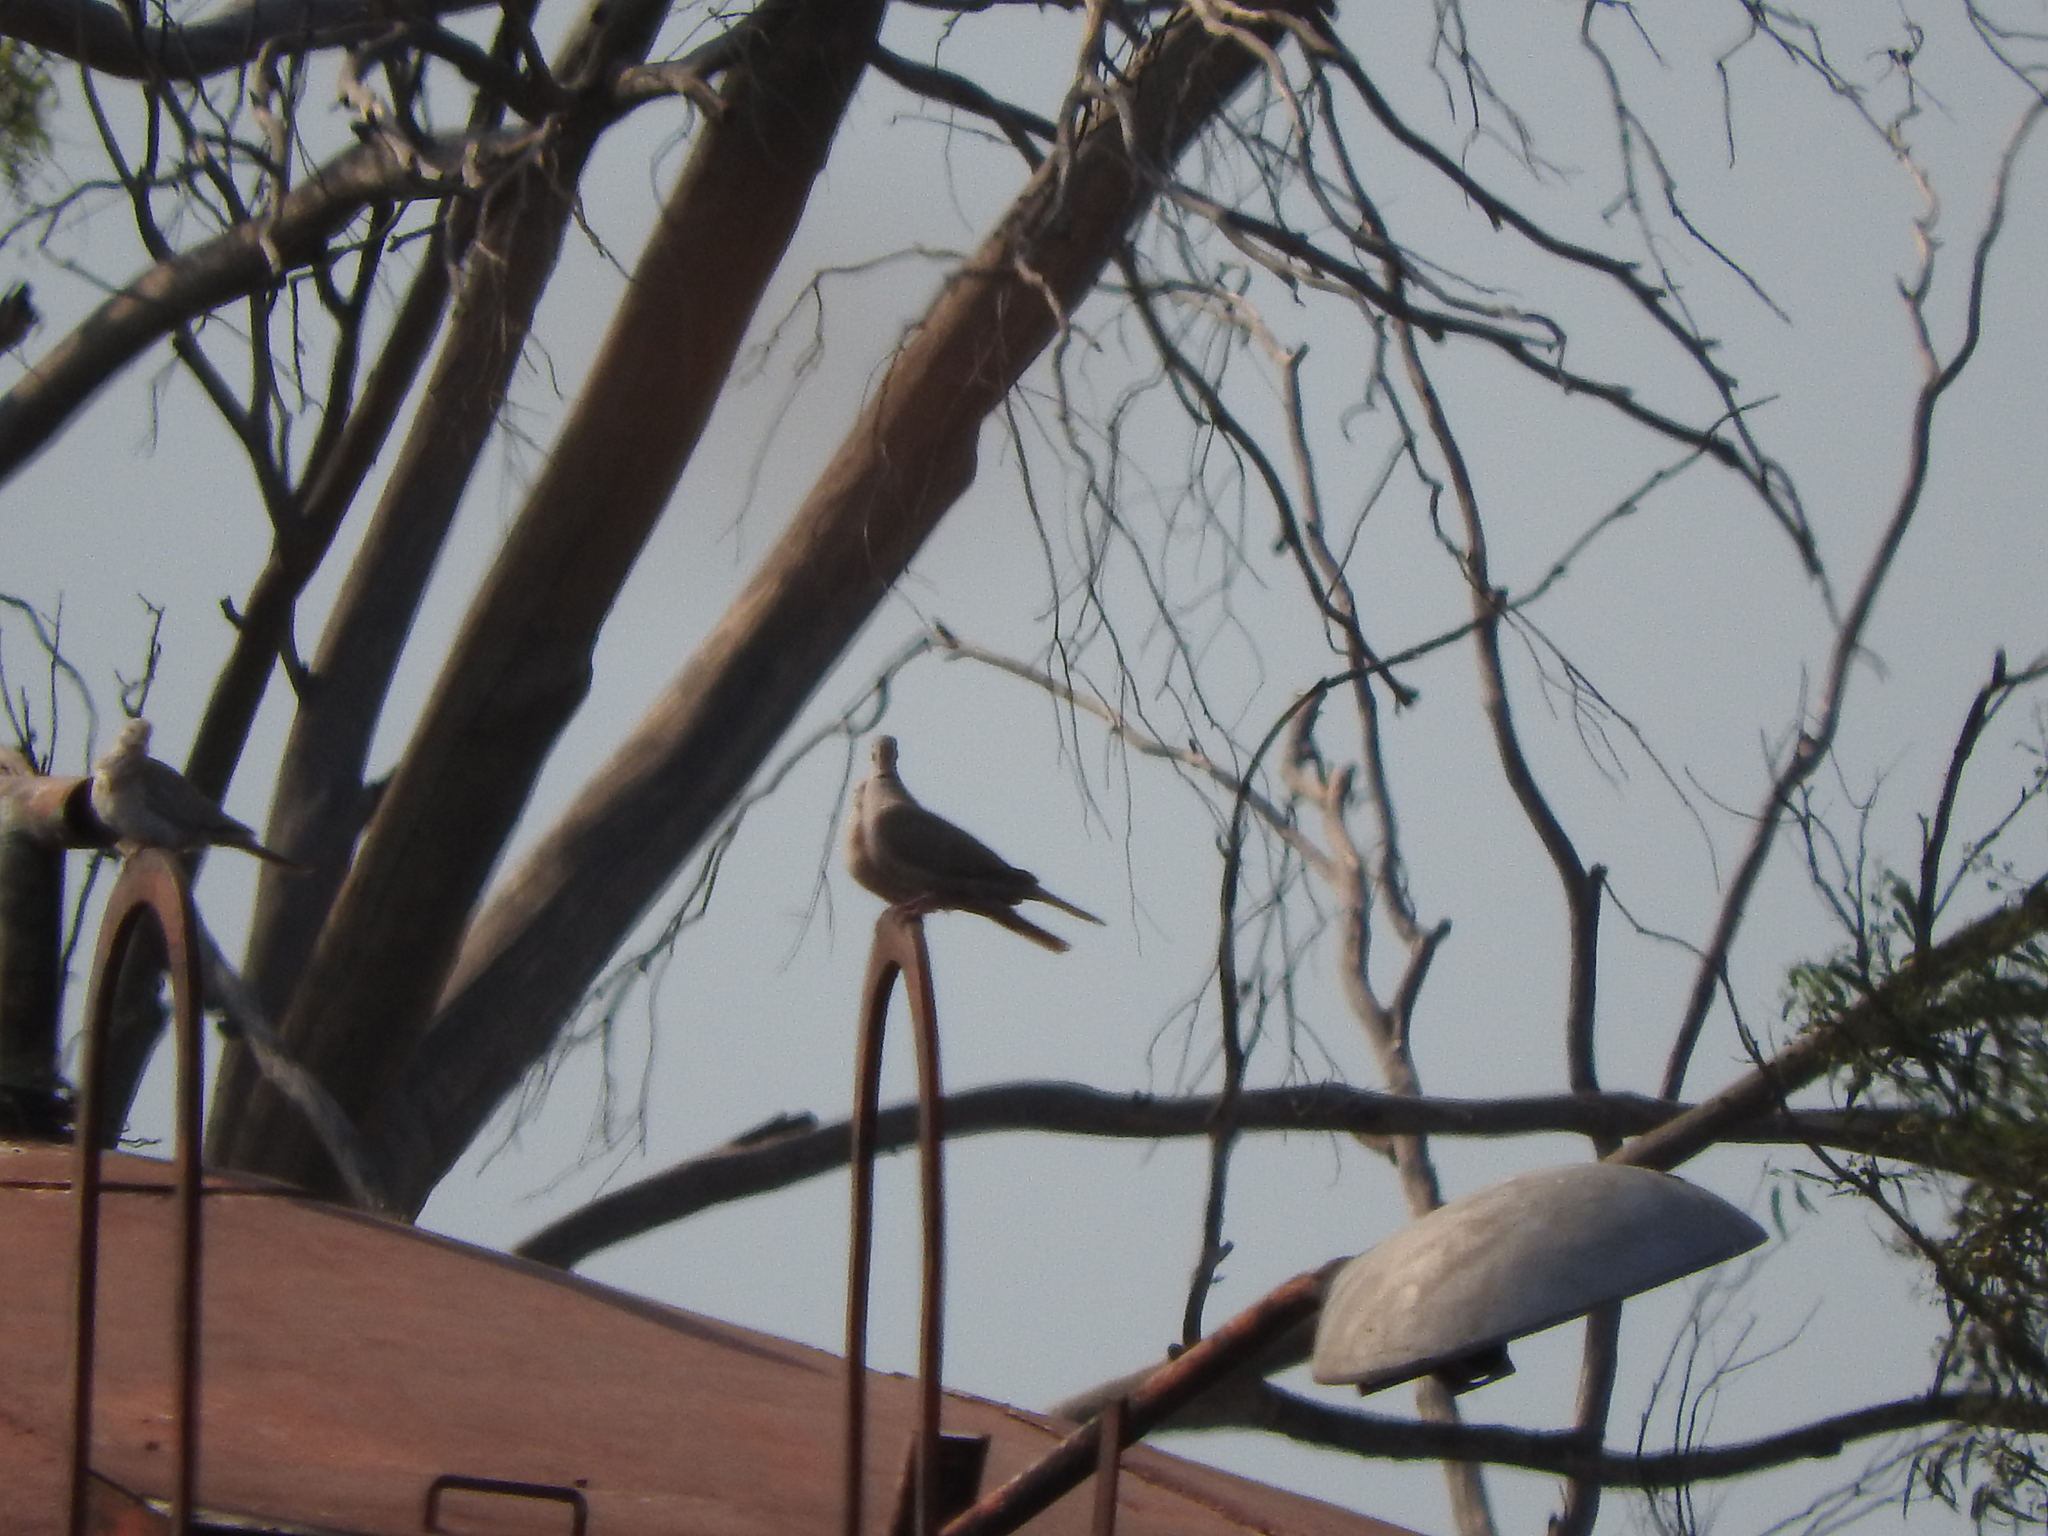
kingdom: Animalia
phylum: Chordata
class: Aves
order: Columbiformes
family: Columbidae
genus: Streptopelia
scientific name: Streptopelia decaocto
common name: Eurasian collared dove
